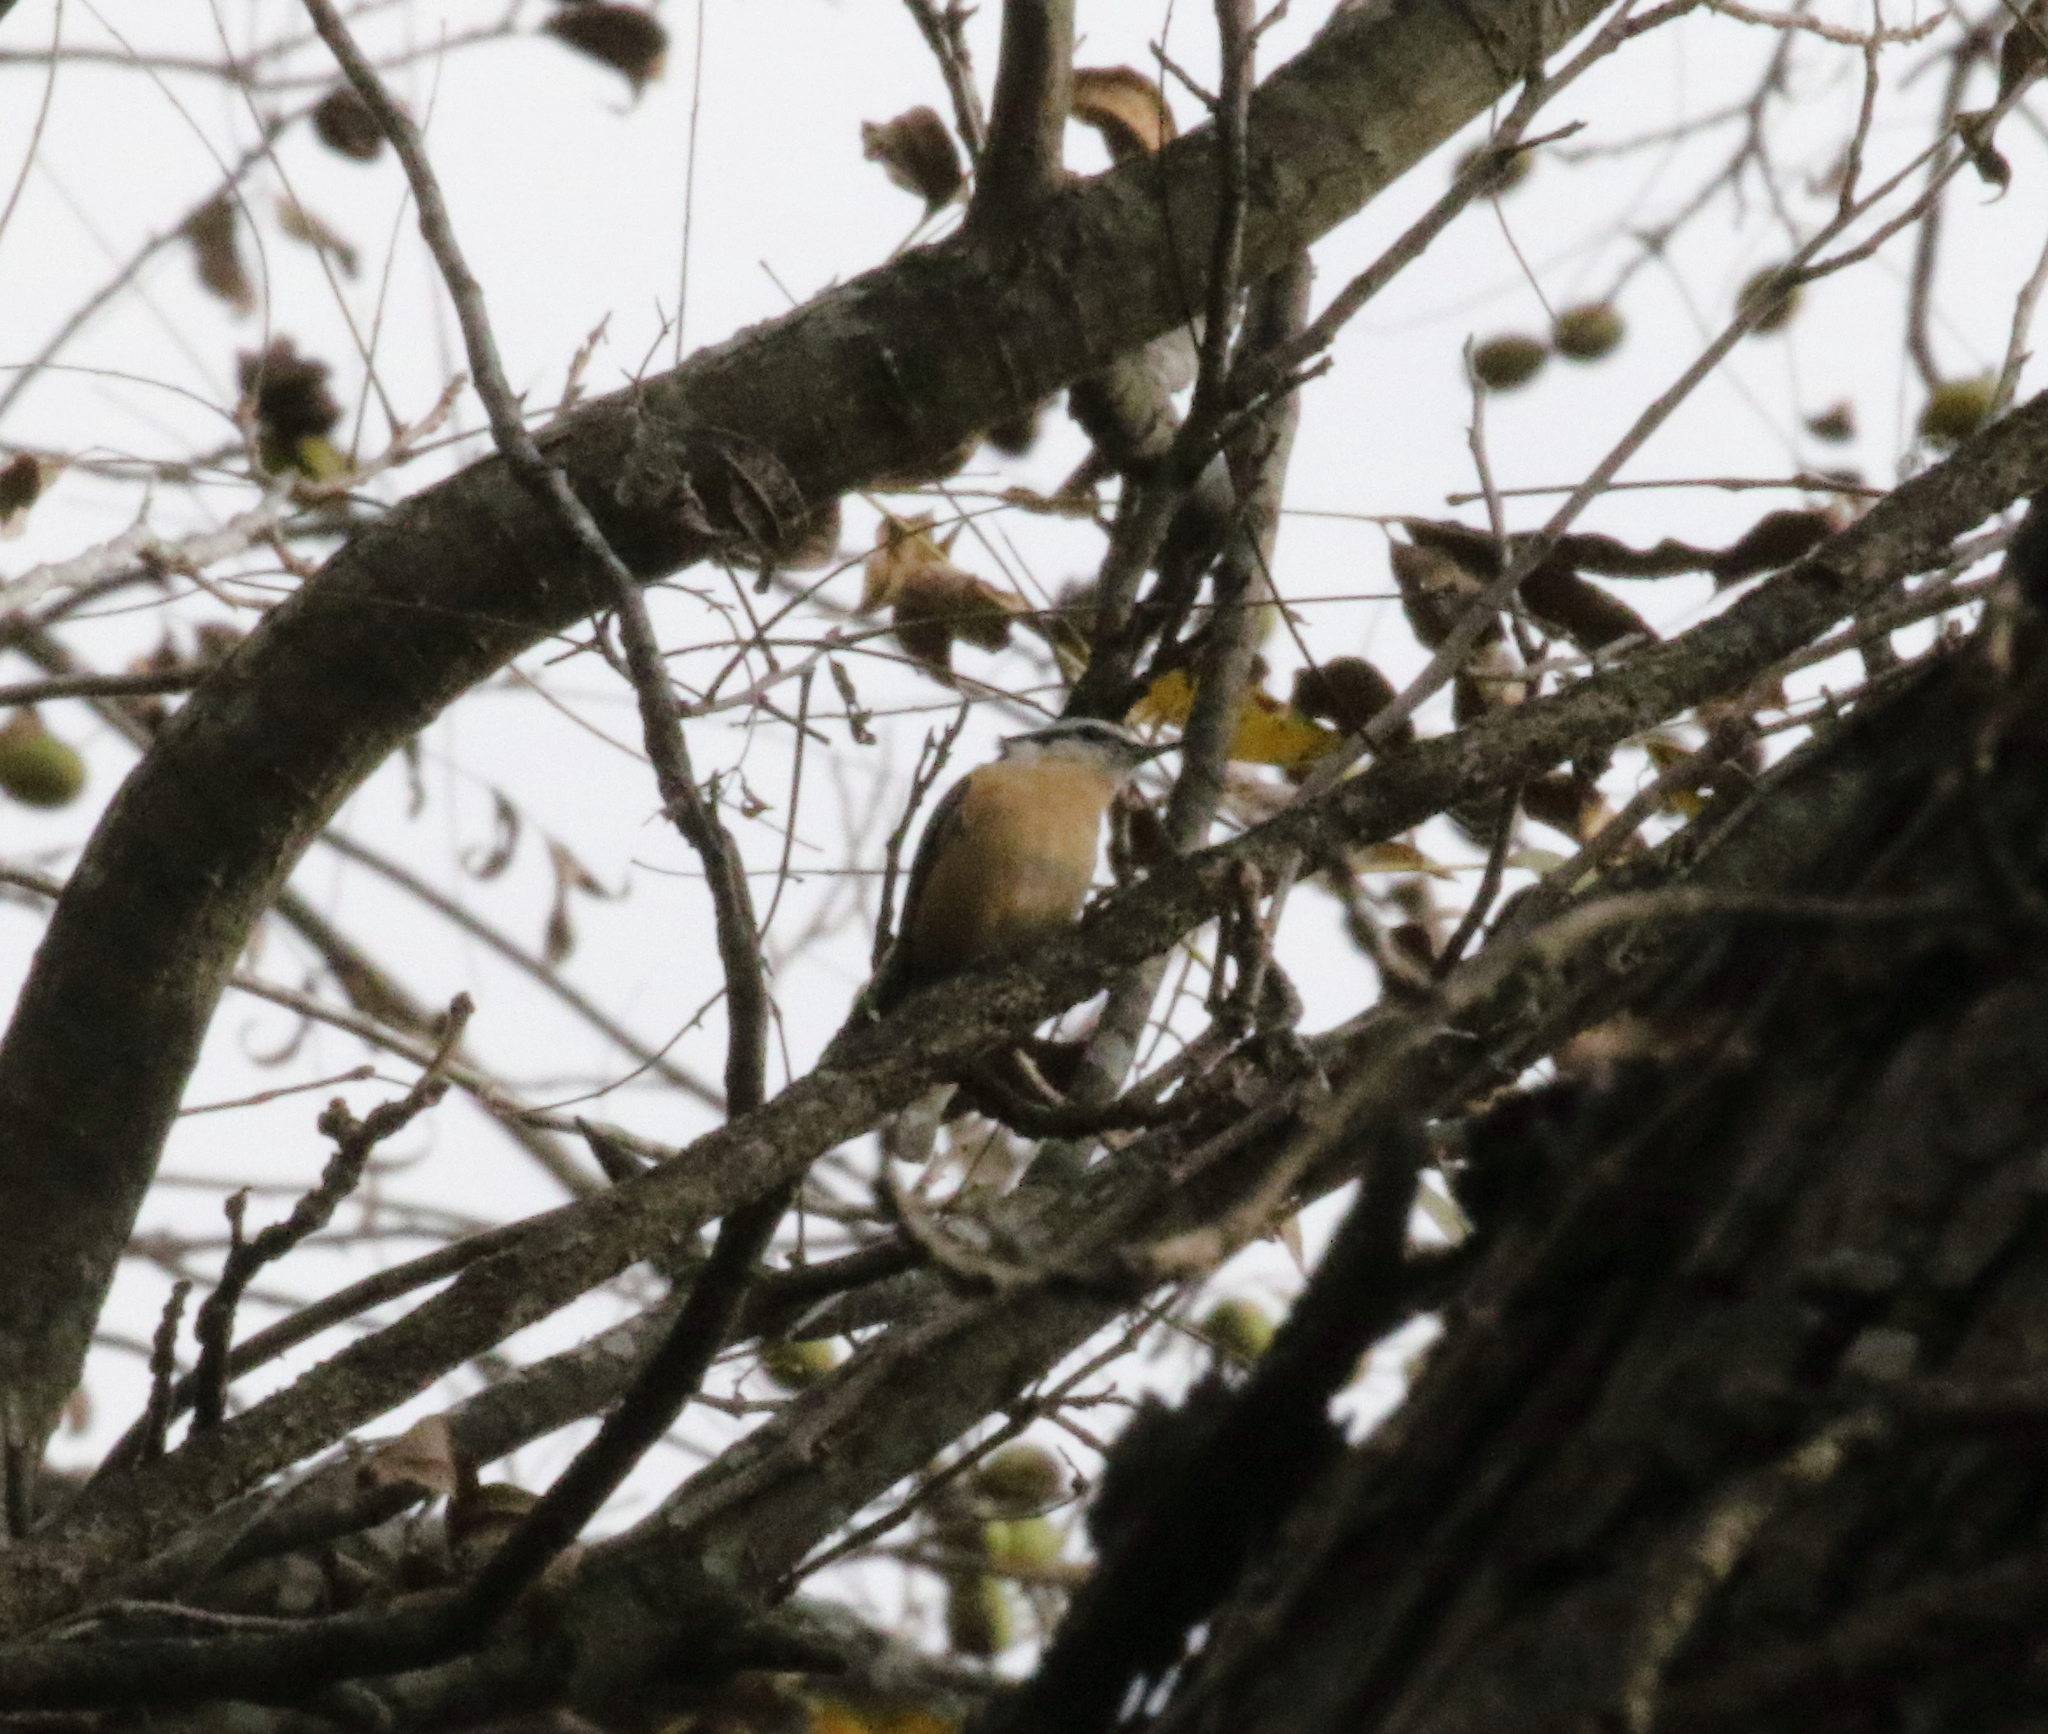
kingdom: Animalia
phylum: Chordata
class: Aves
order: Passeriformes
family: Sittidae
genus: Sitta
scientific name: Sitta canadensis
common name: Red-breasted nuthatch
